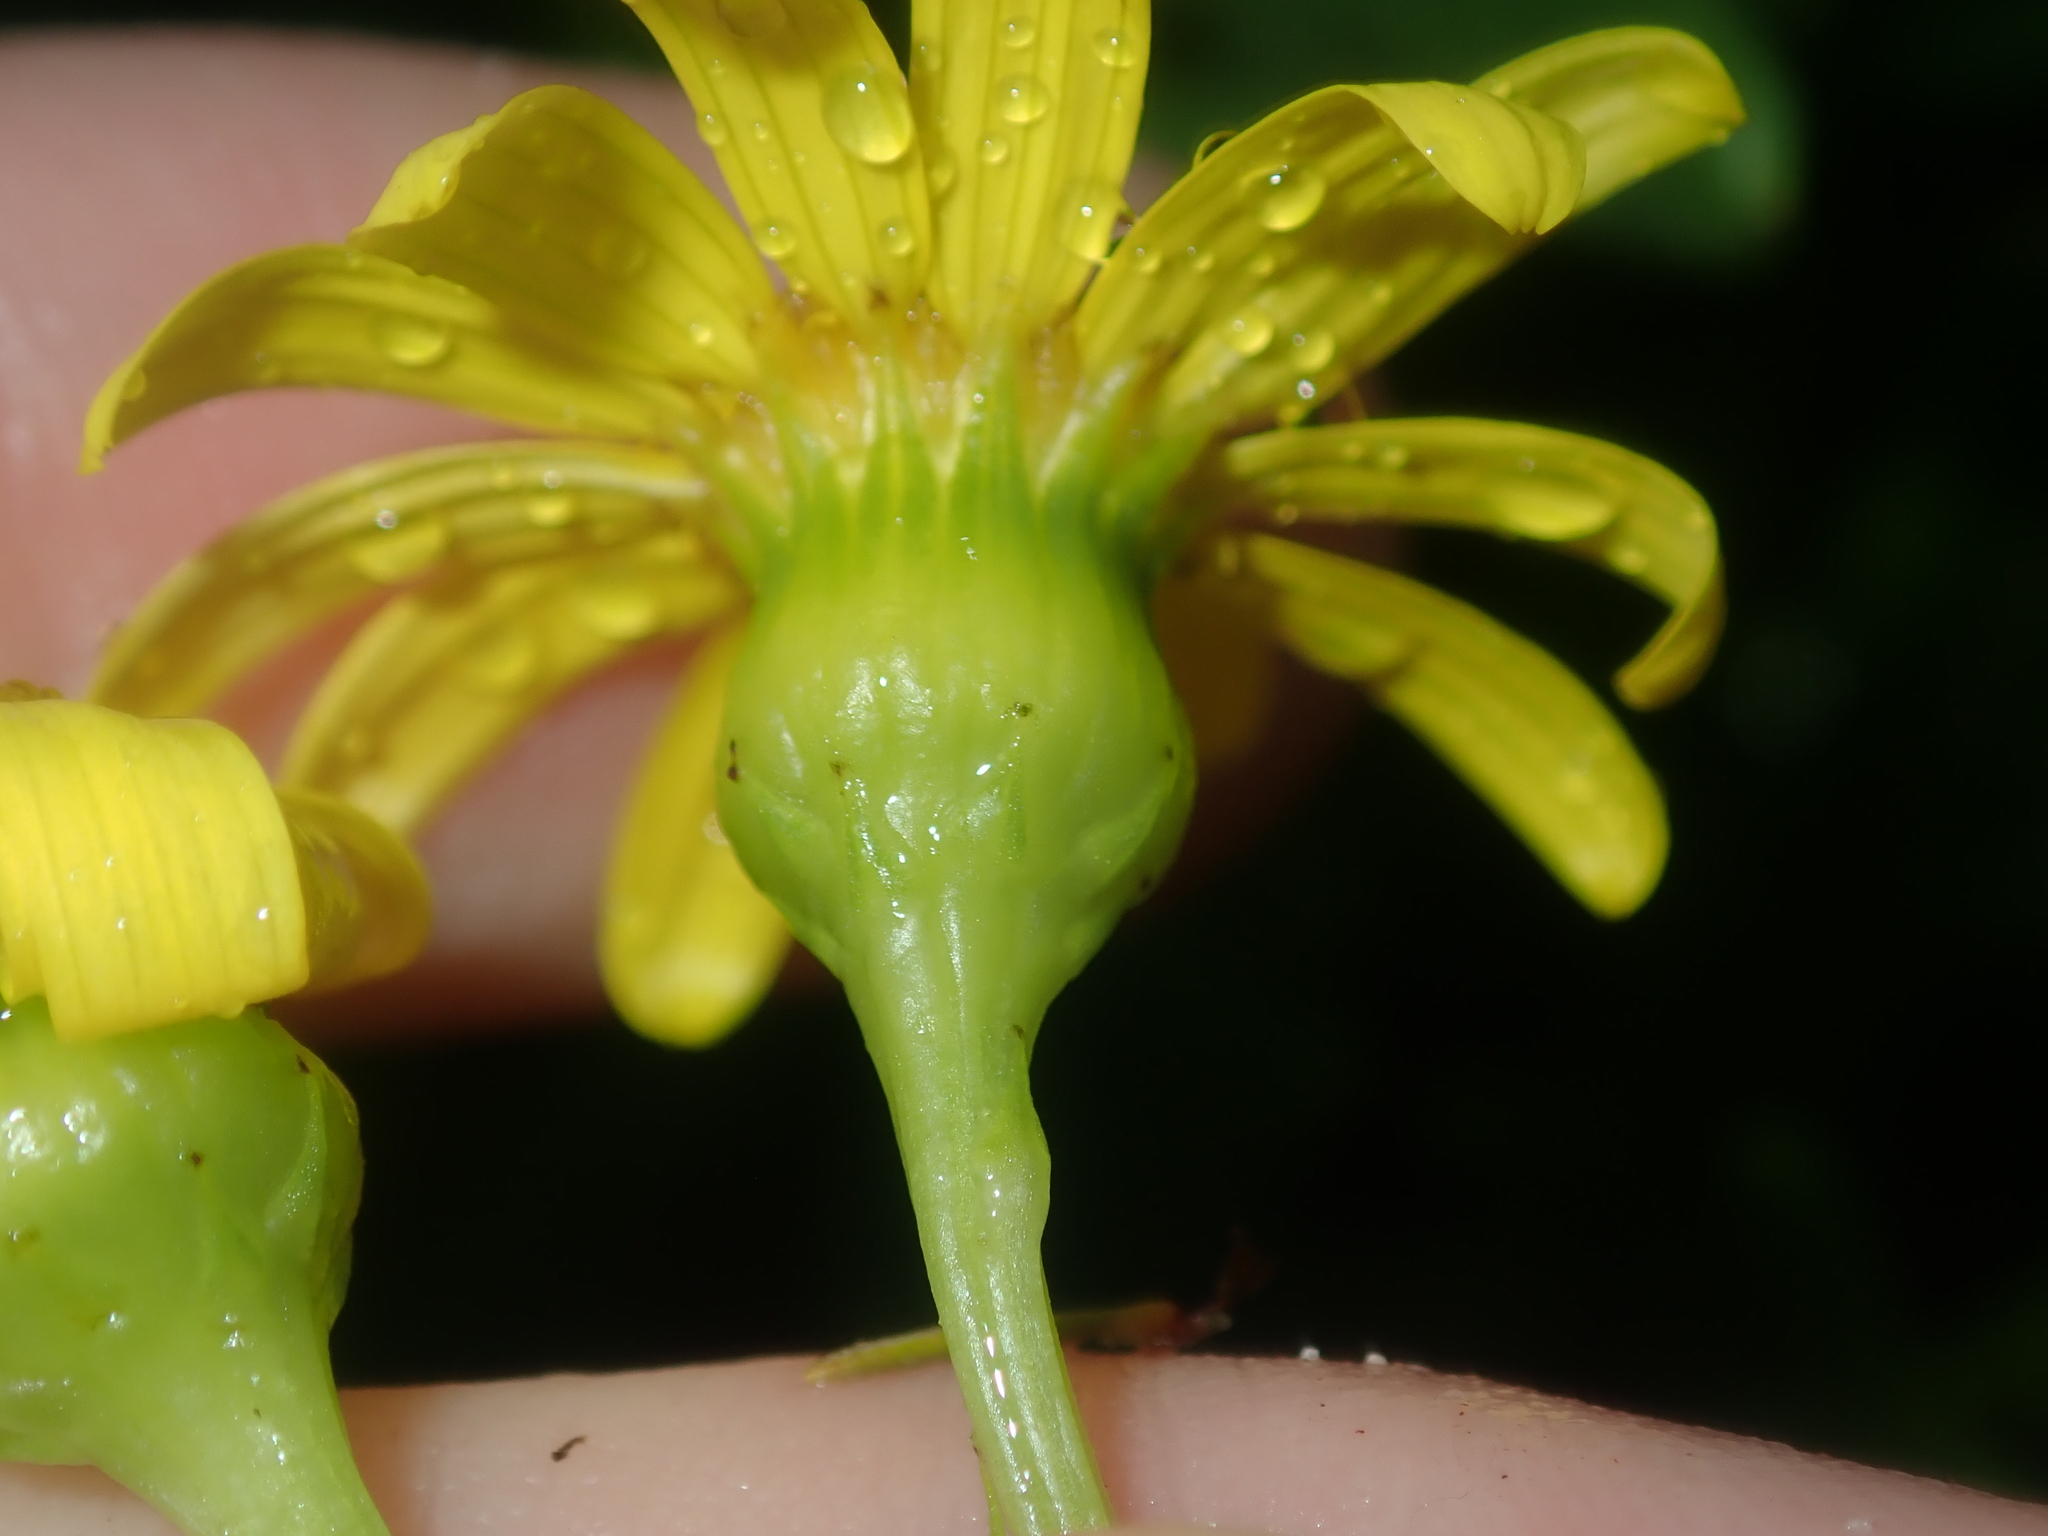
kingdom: Plantae
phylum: Tracheophyta
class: Magnoliopsida
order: Asterales
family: Asteraceae
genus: Senecio
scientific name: Senecio pinnatifolius
